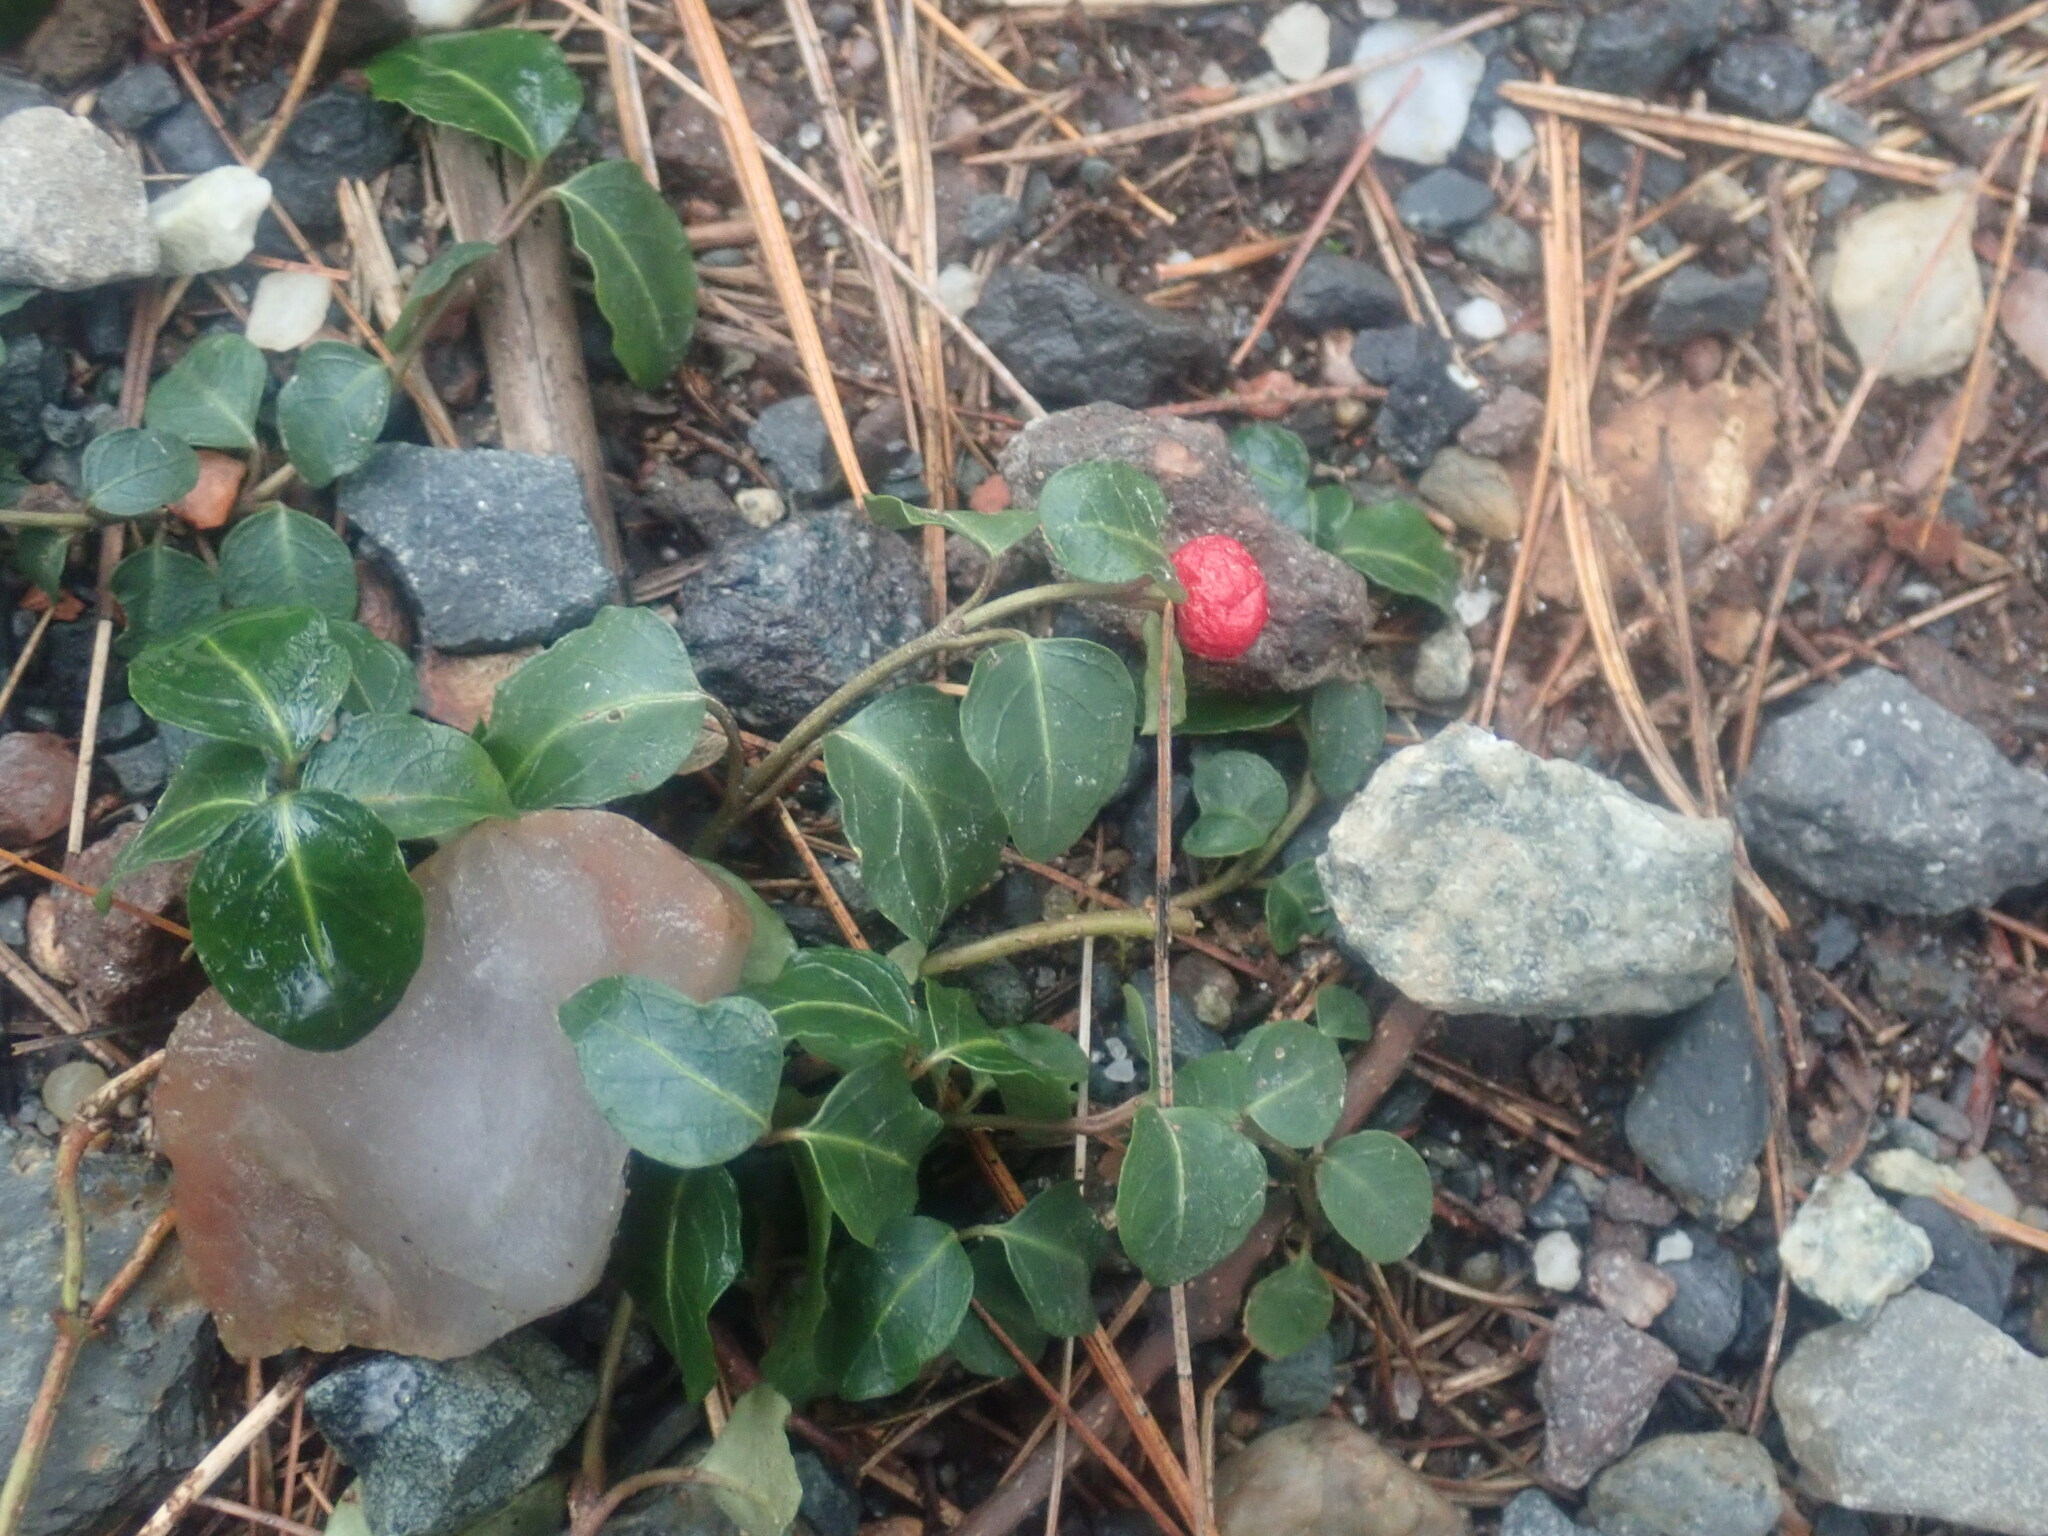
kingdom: Plantae
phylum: Tracheophyta
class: Magnoliopsida
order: Gentianales
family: Rubiaceae
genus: Mitchella
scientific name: Mitchella repens
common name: Partridge-berry
